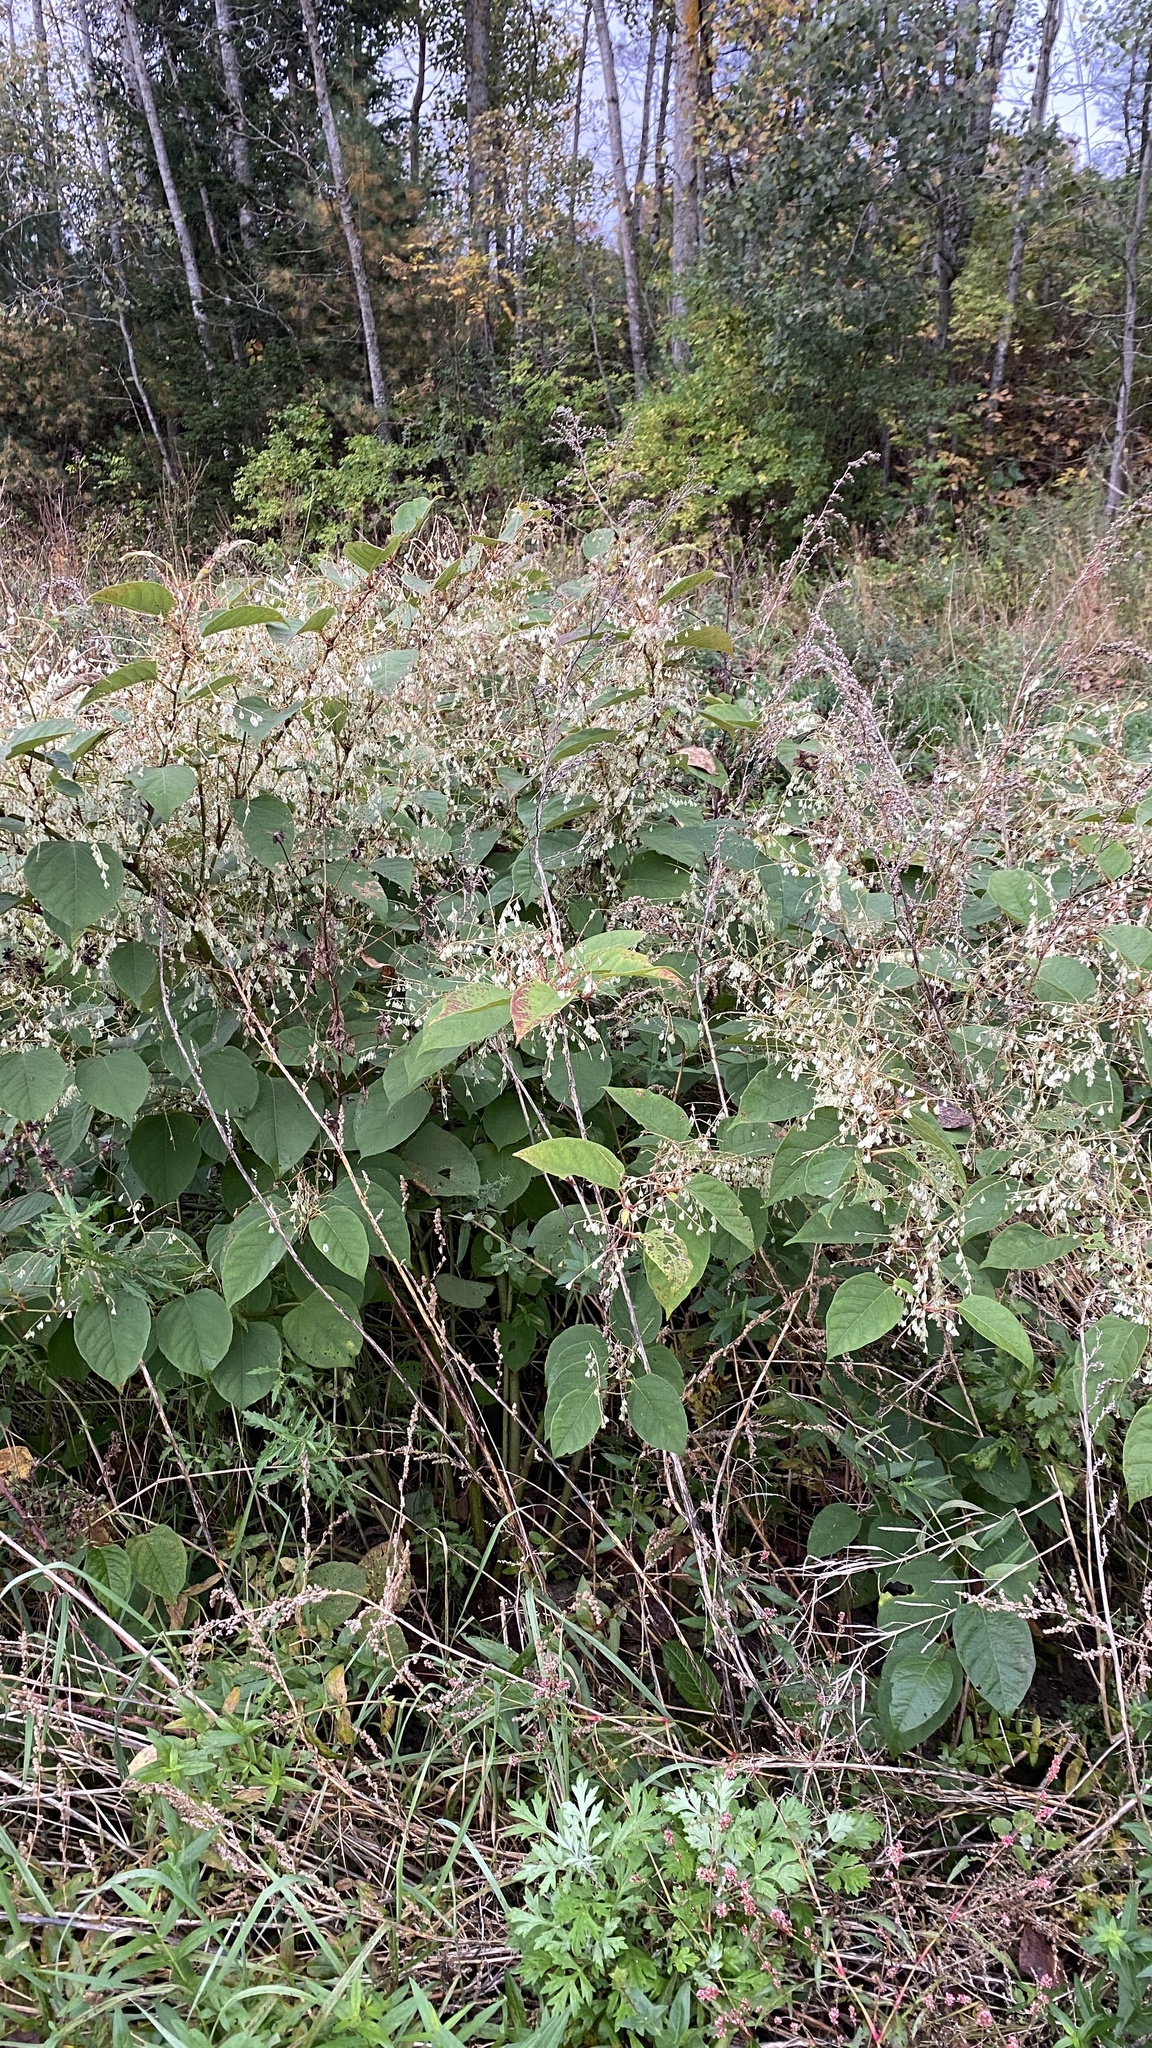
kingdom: Plantae
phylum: Tracheophyta
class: Magnoliopsida
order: Caryophyllales
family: Polygonaceae
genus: Reynoutria
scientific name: Reynoutria japonica
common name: Japanese knotweed
